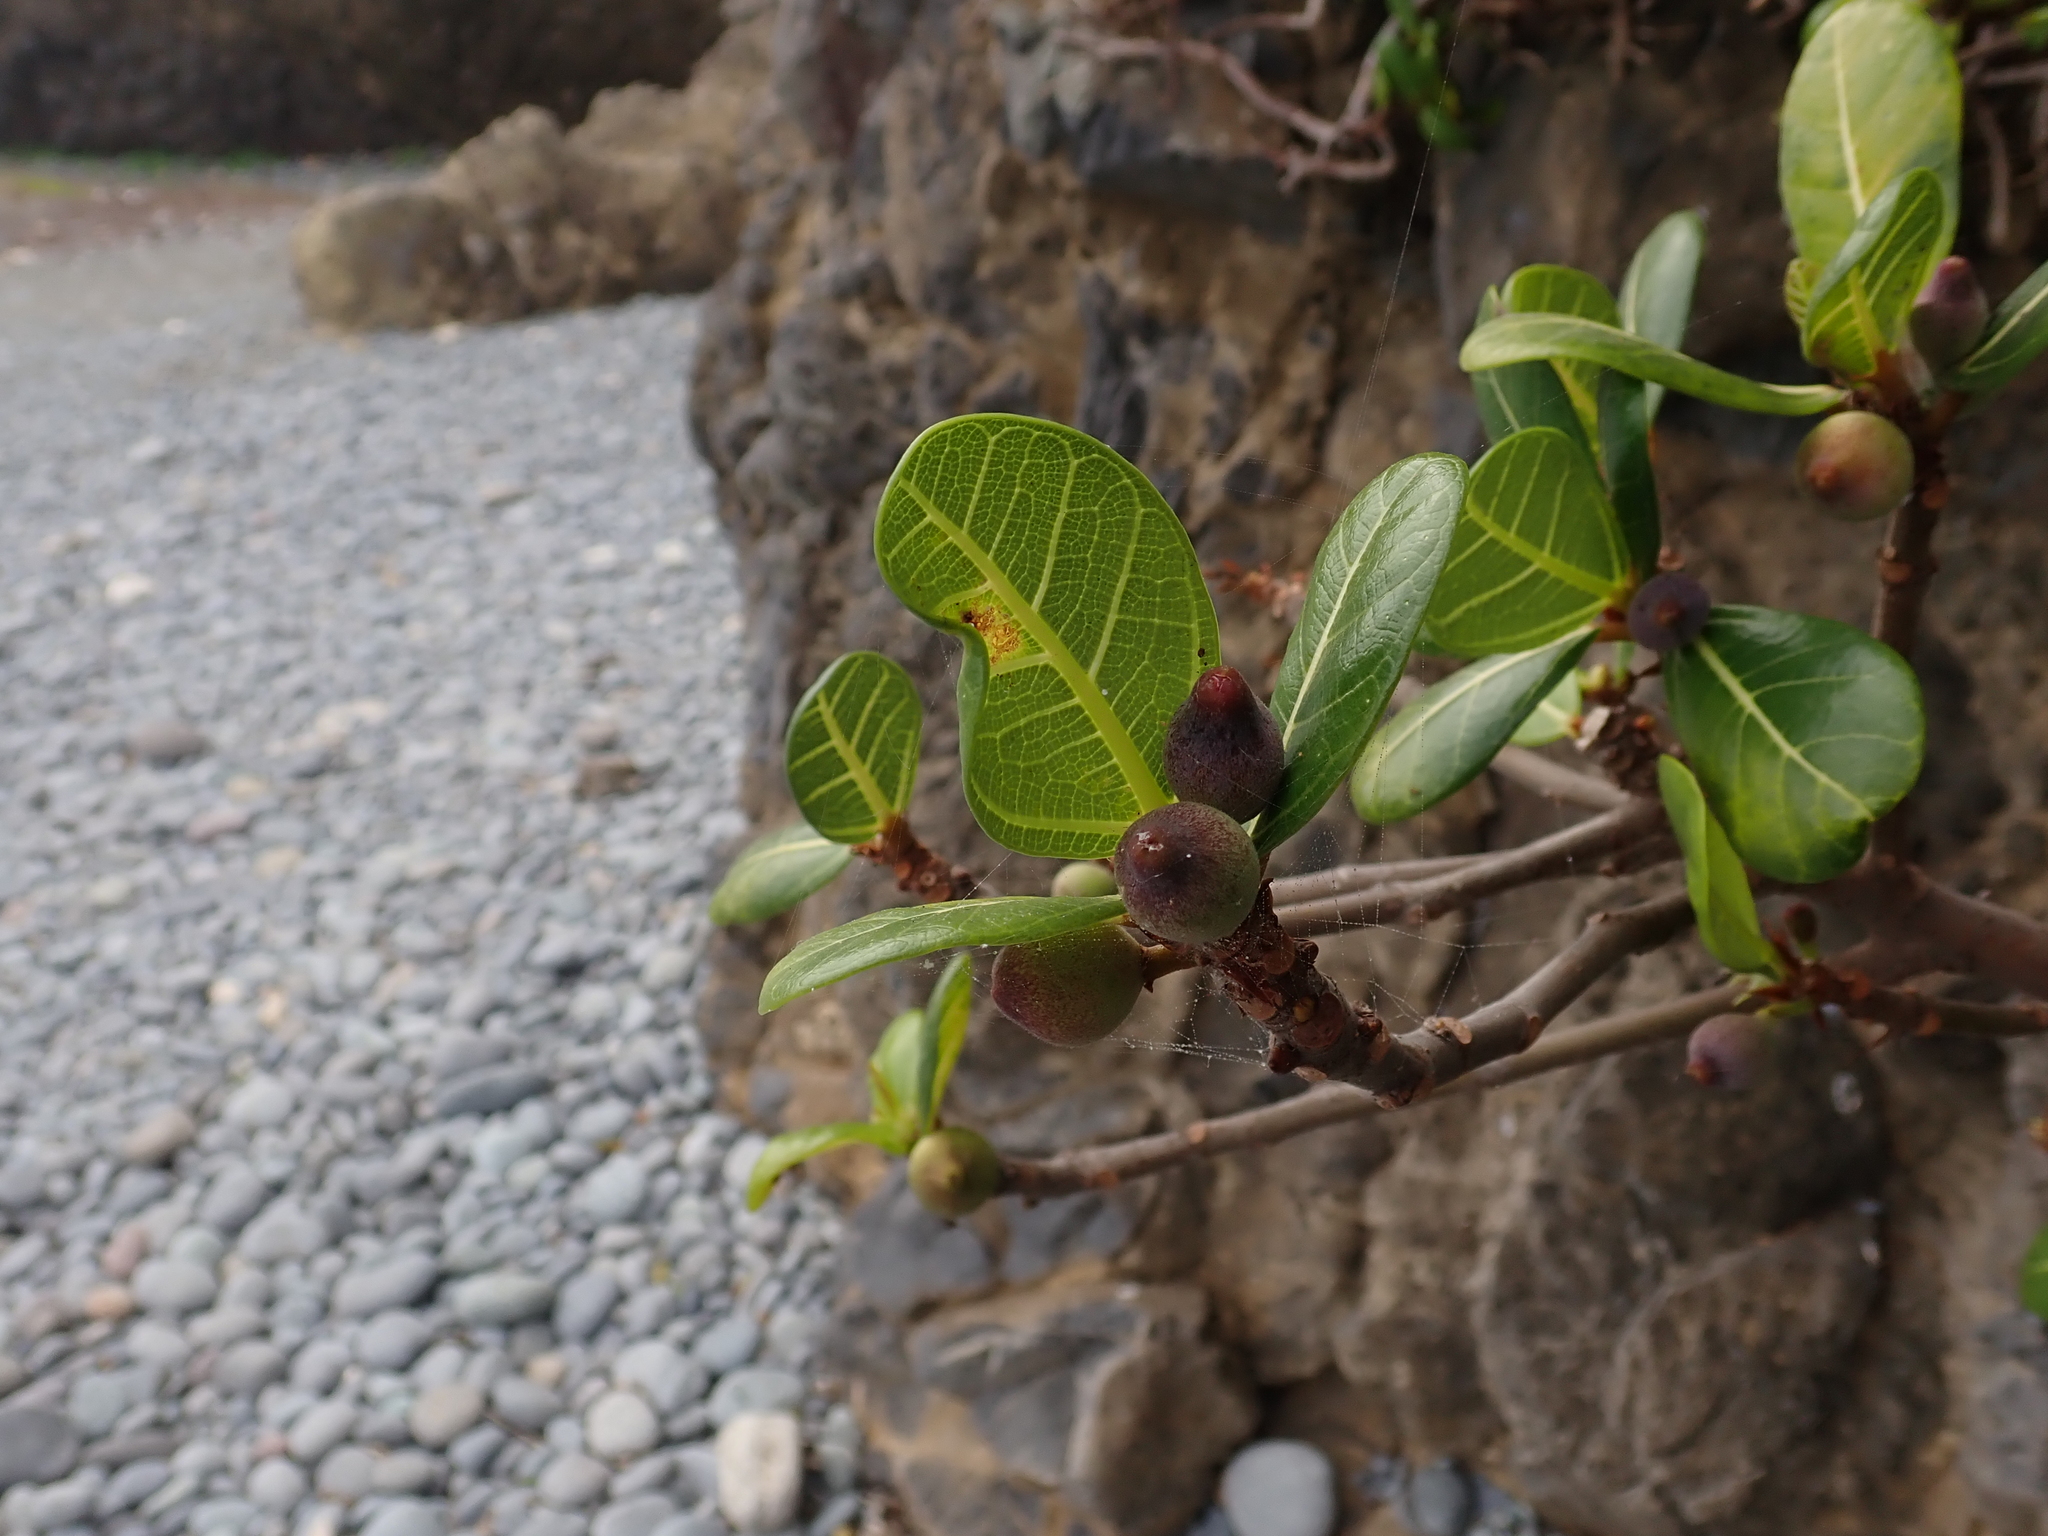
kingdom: Plantae
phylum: Tracheophyta
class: Magnoliopsida
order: Rosales
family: Moraceae
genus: Ficus
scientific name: Ficus pedunculosa
